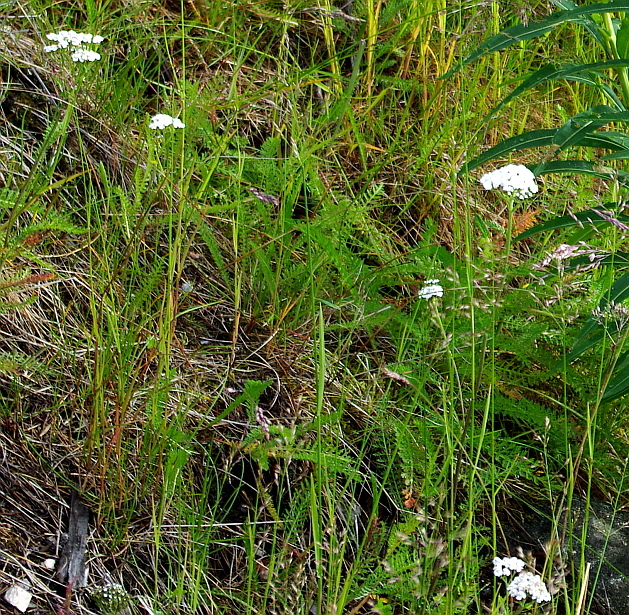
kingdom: Plantae
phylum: Tracheophyta
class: Magnoliopsida
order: Asterales
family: Asteraceae
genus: Achillea
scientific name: Achillea millefolium
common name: Yarrow
